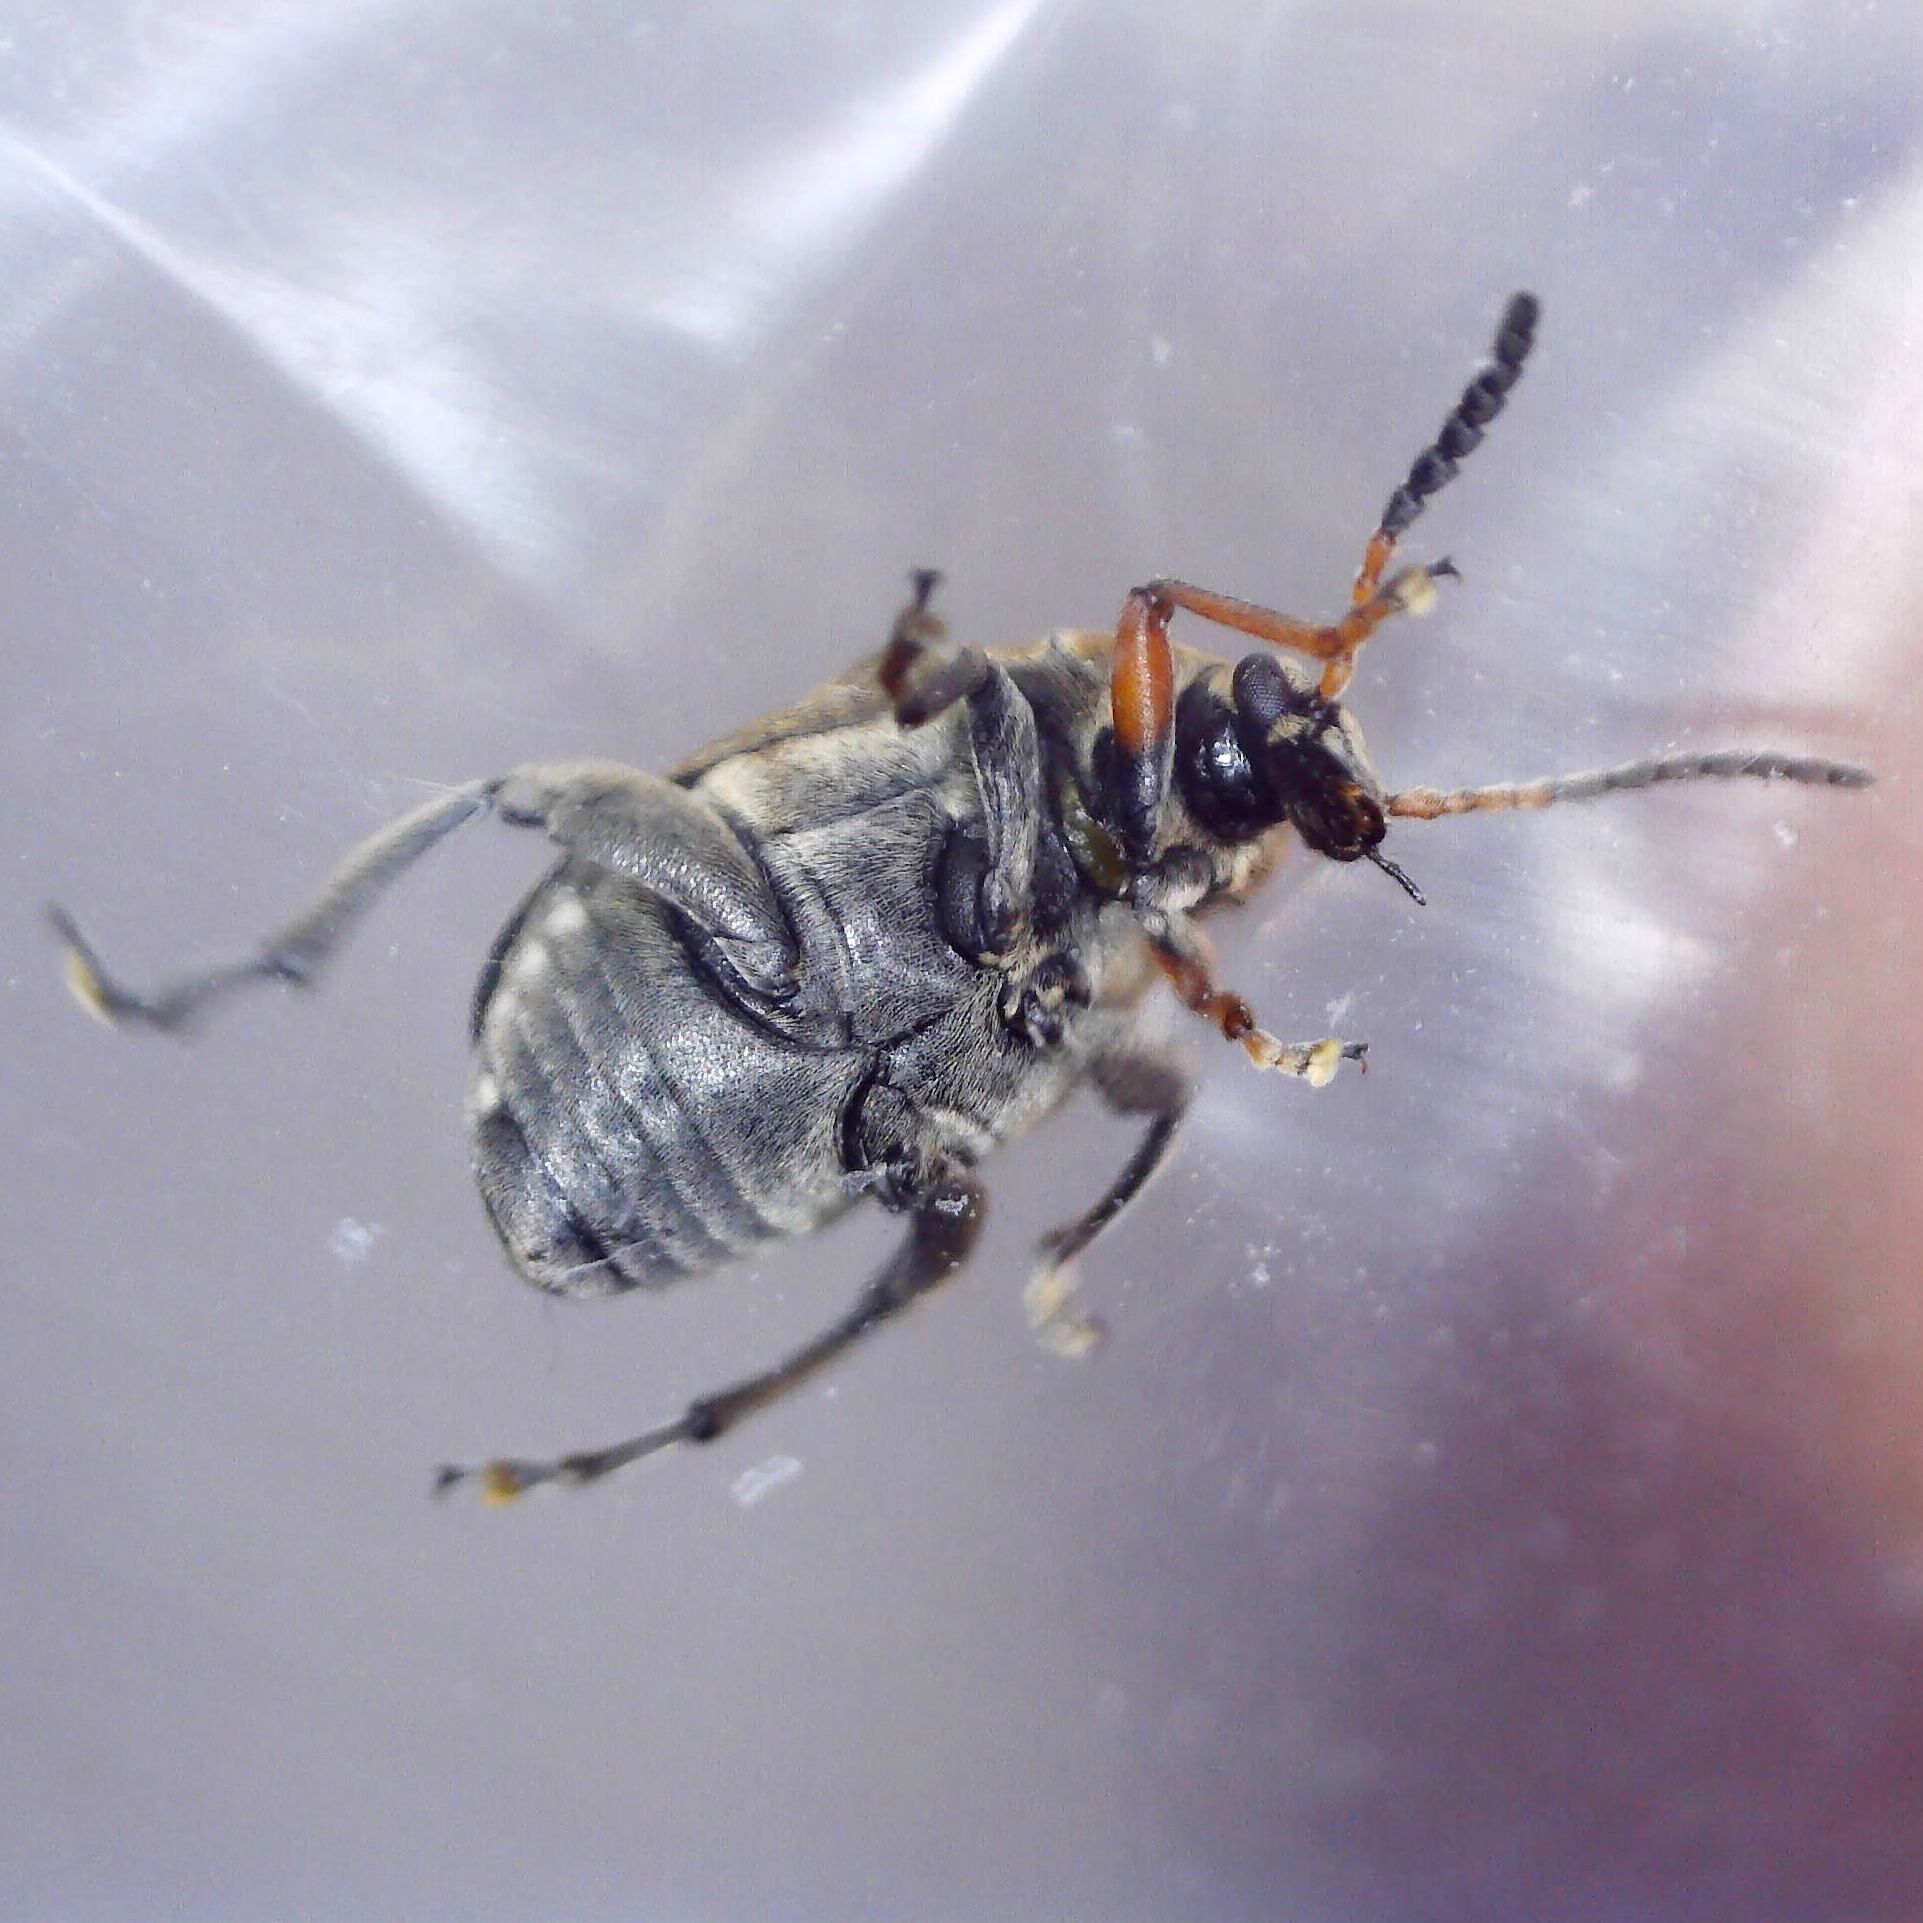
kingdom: Animalia
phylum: Arthropoda
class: Insecta
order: Coleoptera
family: Chrysomelidae
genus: Bruchus
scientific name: Bruchus rufimanus
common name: Broadbean weevil
